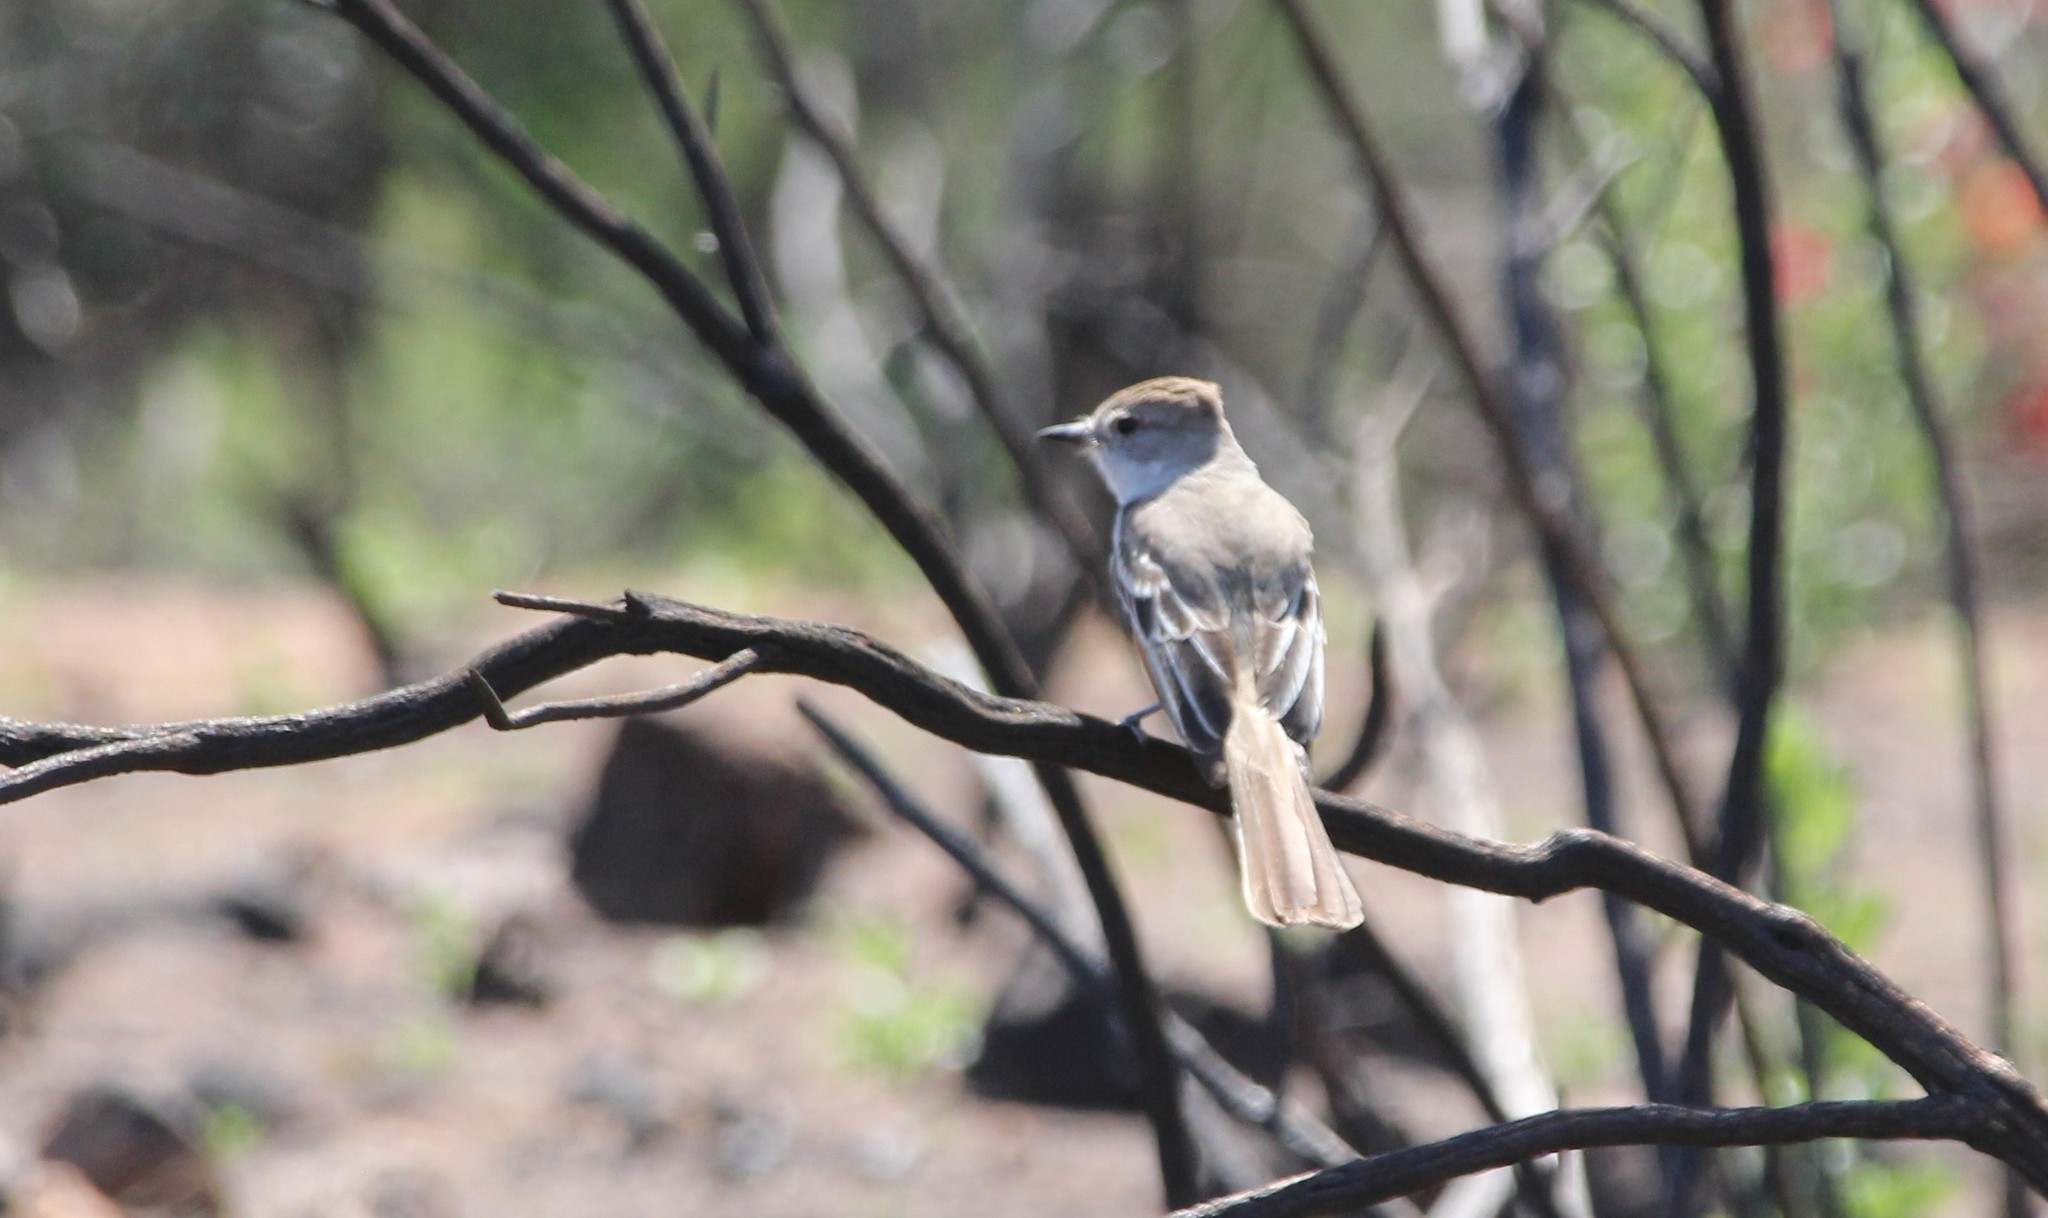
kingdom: Animalia
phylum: Chordata
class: Aves
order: Passeriformes
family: Tyrannidae
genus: Myiarchus
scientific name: Myiarchus cinerascens
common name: Ash-throated flycatcher
